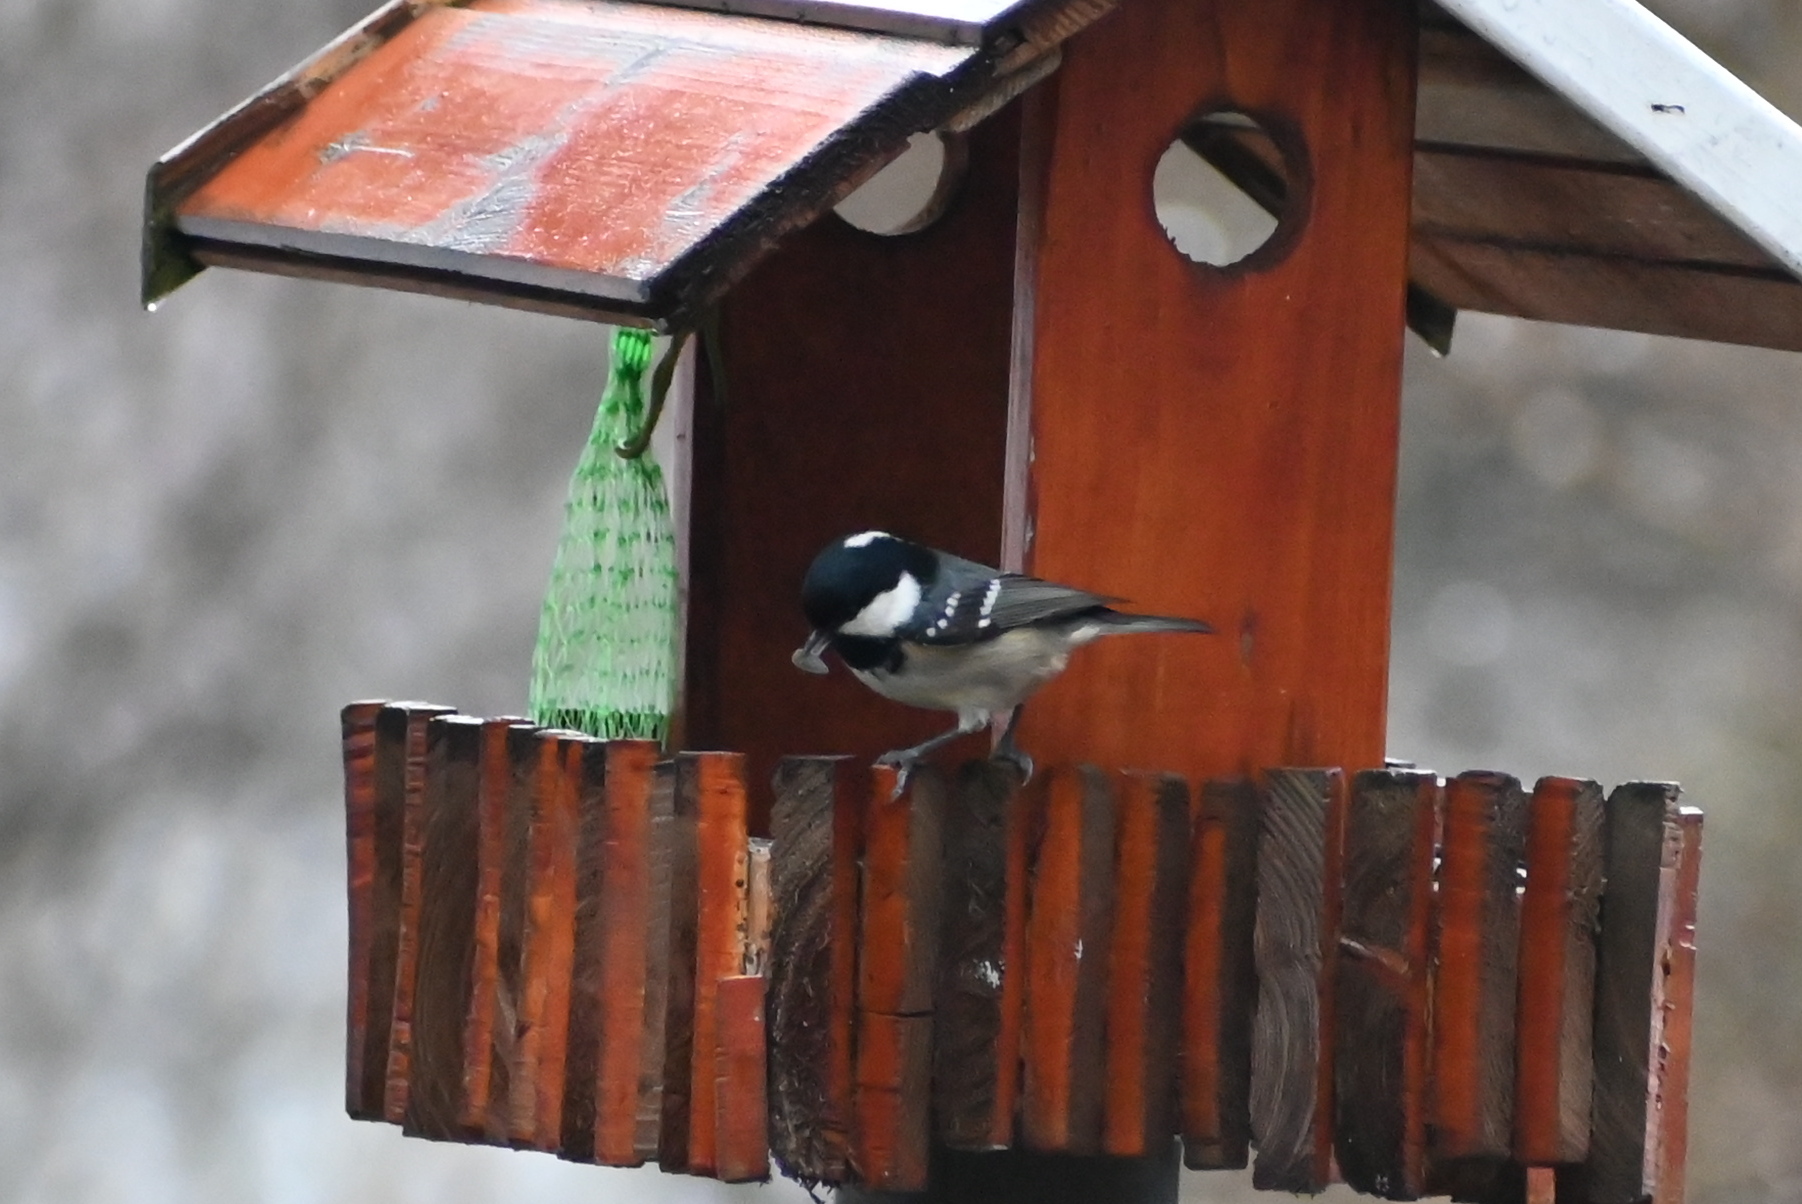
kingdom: Animalia
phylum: Chordata
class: Aves
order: Passeriformes
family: Paridae
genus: Periparus
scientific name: Periparus ater
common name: Coal tit
